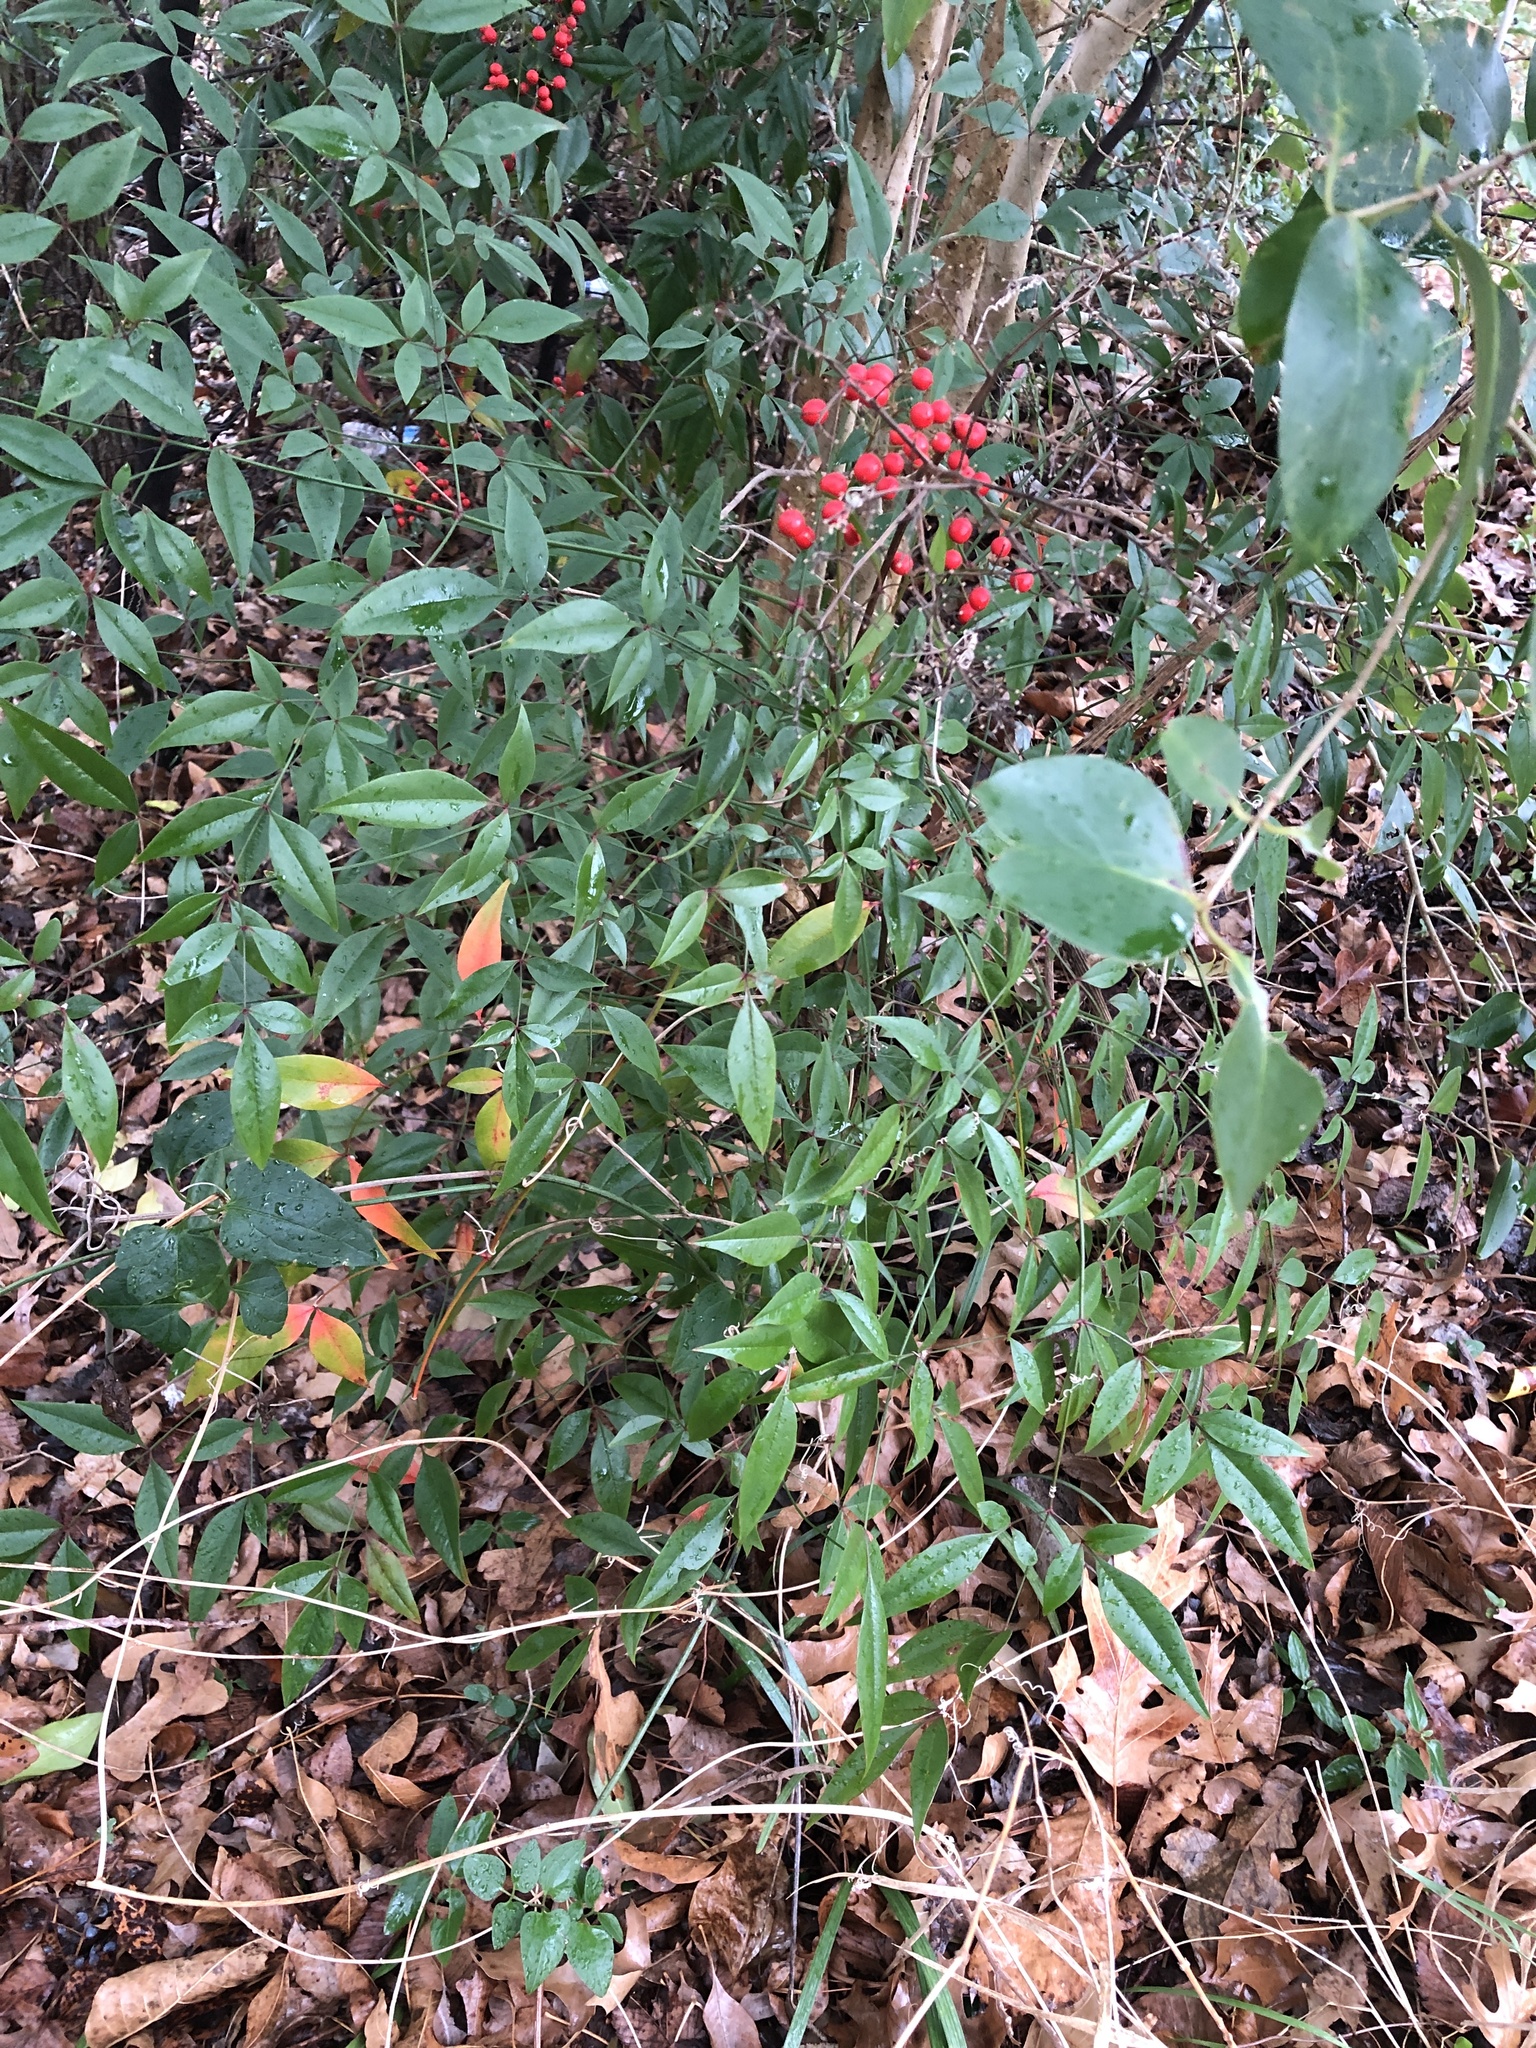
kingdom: Plantae
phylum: Tracheophyta
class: Magnoliopsida
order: Ranunculales
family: Berberidaceae
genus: Nandina
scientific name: Nandina domestica
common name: Sacred bamboo
